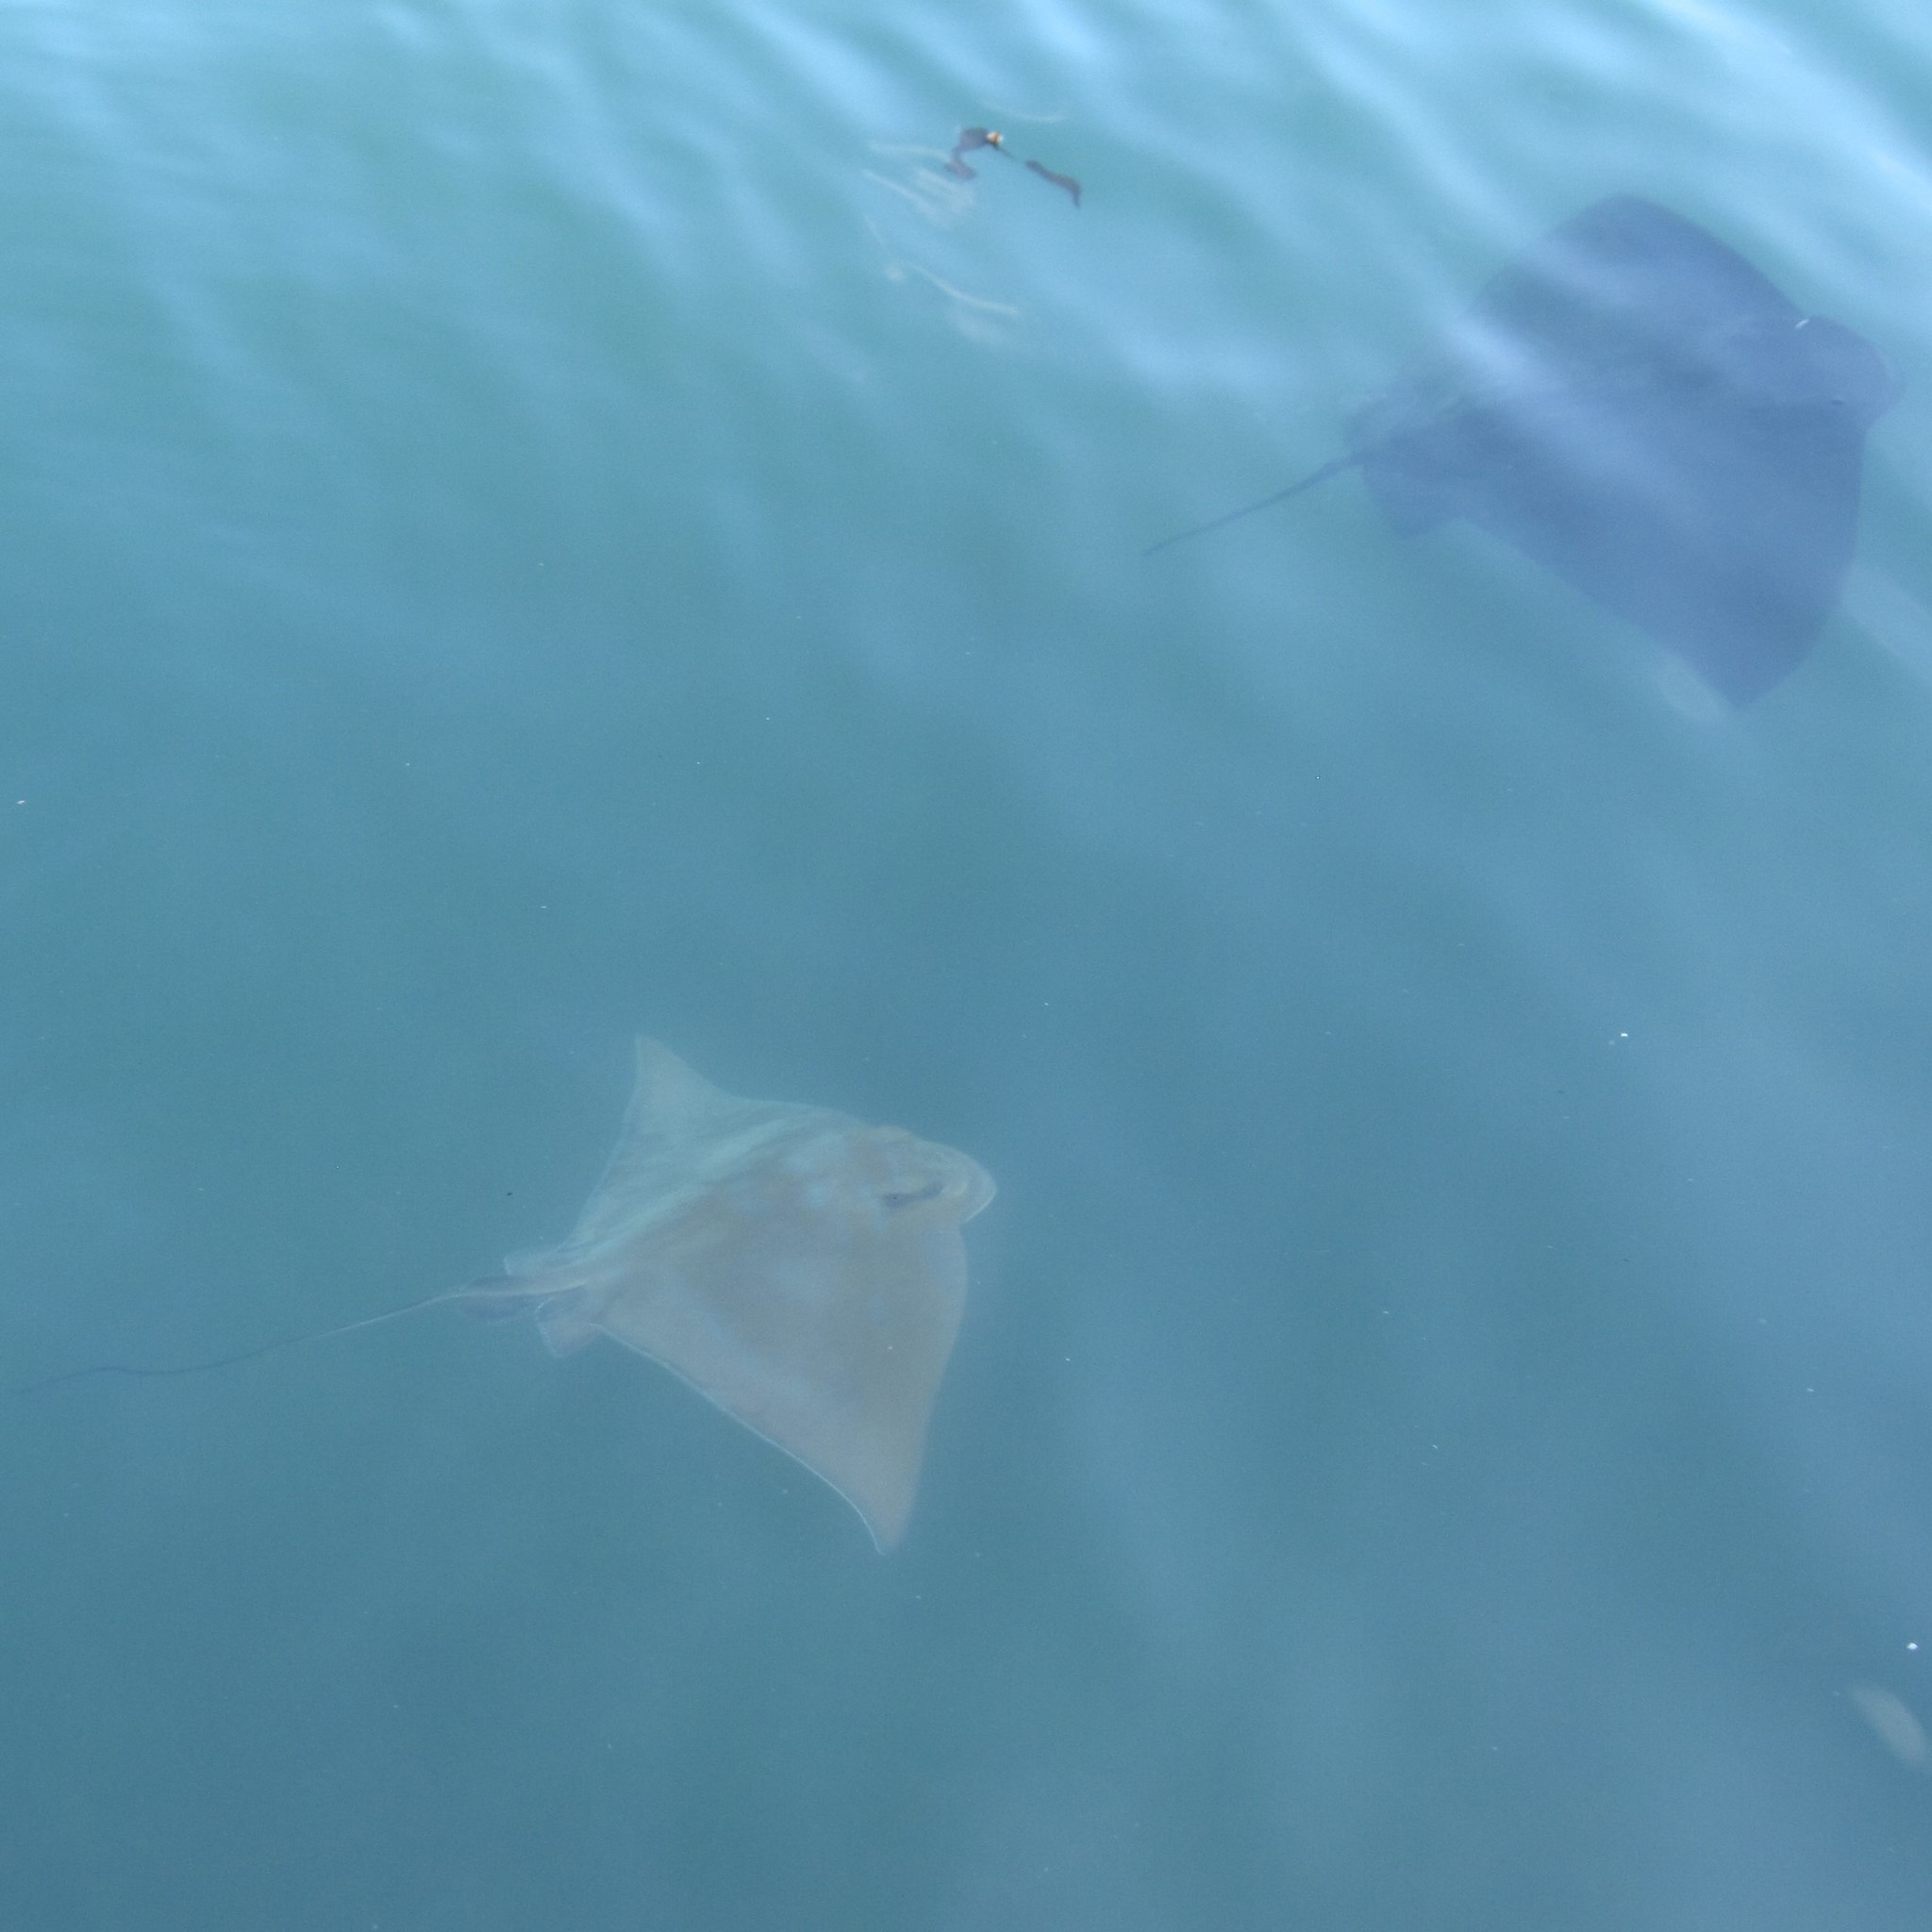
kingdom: Animalia
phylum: Chordata
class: Elasmobranchii
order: Myliobatiformes
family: Myliobatidae
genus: Myliobatis
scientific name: Myliobatis tenuicaudatus
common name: Eagle ray
